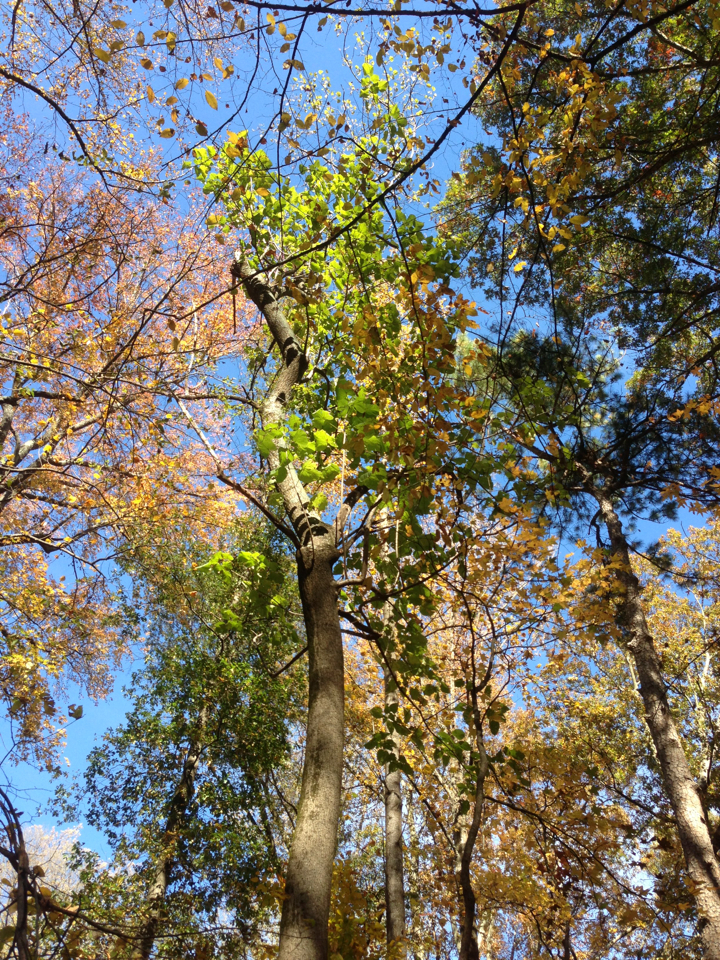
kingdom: Plantae
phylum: Tracheophyta
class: Magnoliopsida
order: Lamiales
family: Paulowniaceae
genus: Paulownia
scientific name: Paulownia tomentosa
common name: Foxglove-tree
